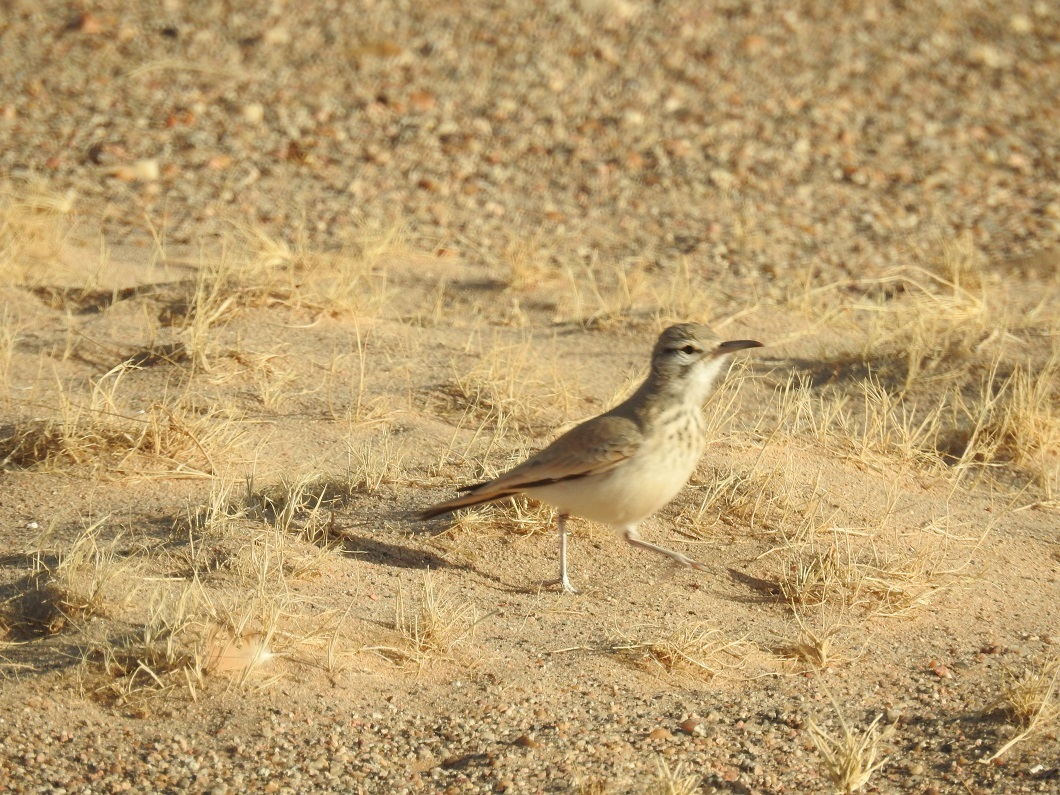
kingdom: Animalia
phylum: Chordata
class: Aves
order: Passeriformes
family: Alaudidae
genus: Alaemon
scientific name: Alaemon alaudipes
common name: Greater hoopoe-lark
